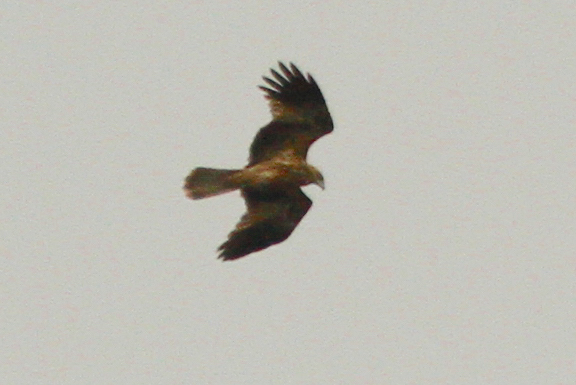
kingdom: Animalia
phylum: Chordata
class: Aves
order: Accipitriformes
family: Accipitridae
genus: Circus
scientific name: Circus approximans
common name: Swamp harrier
